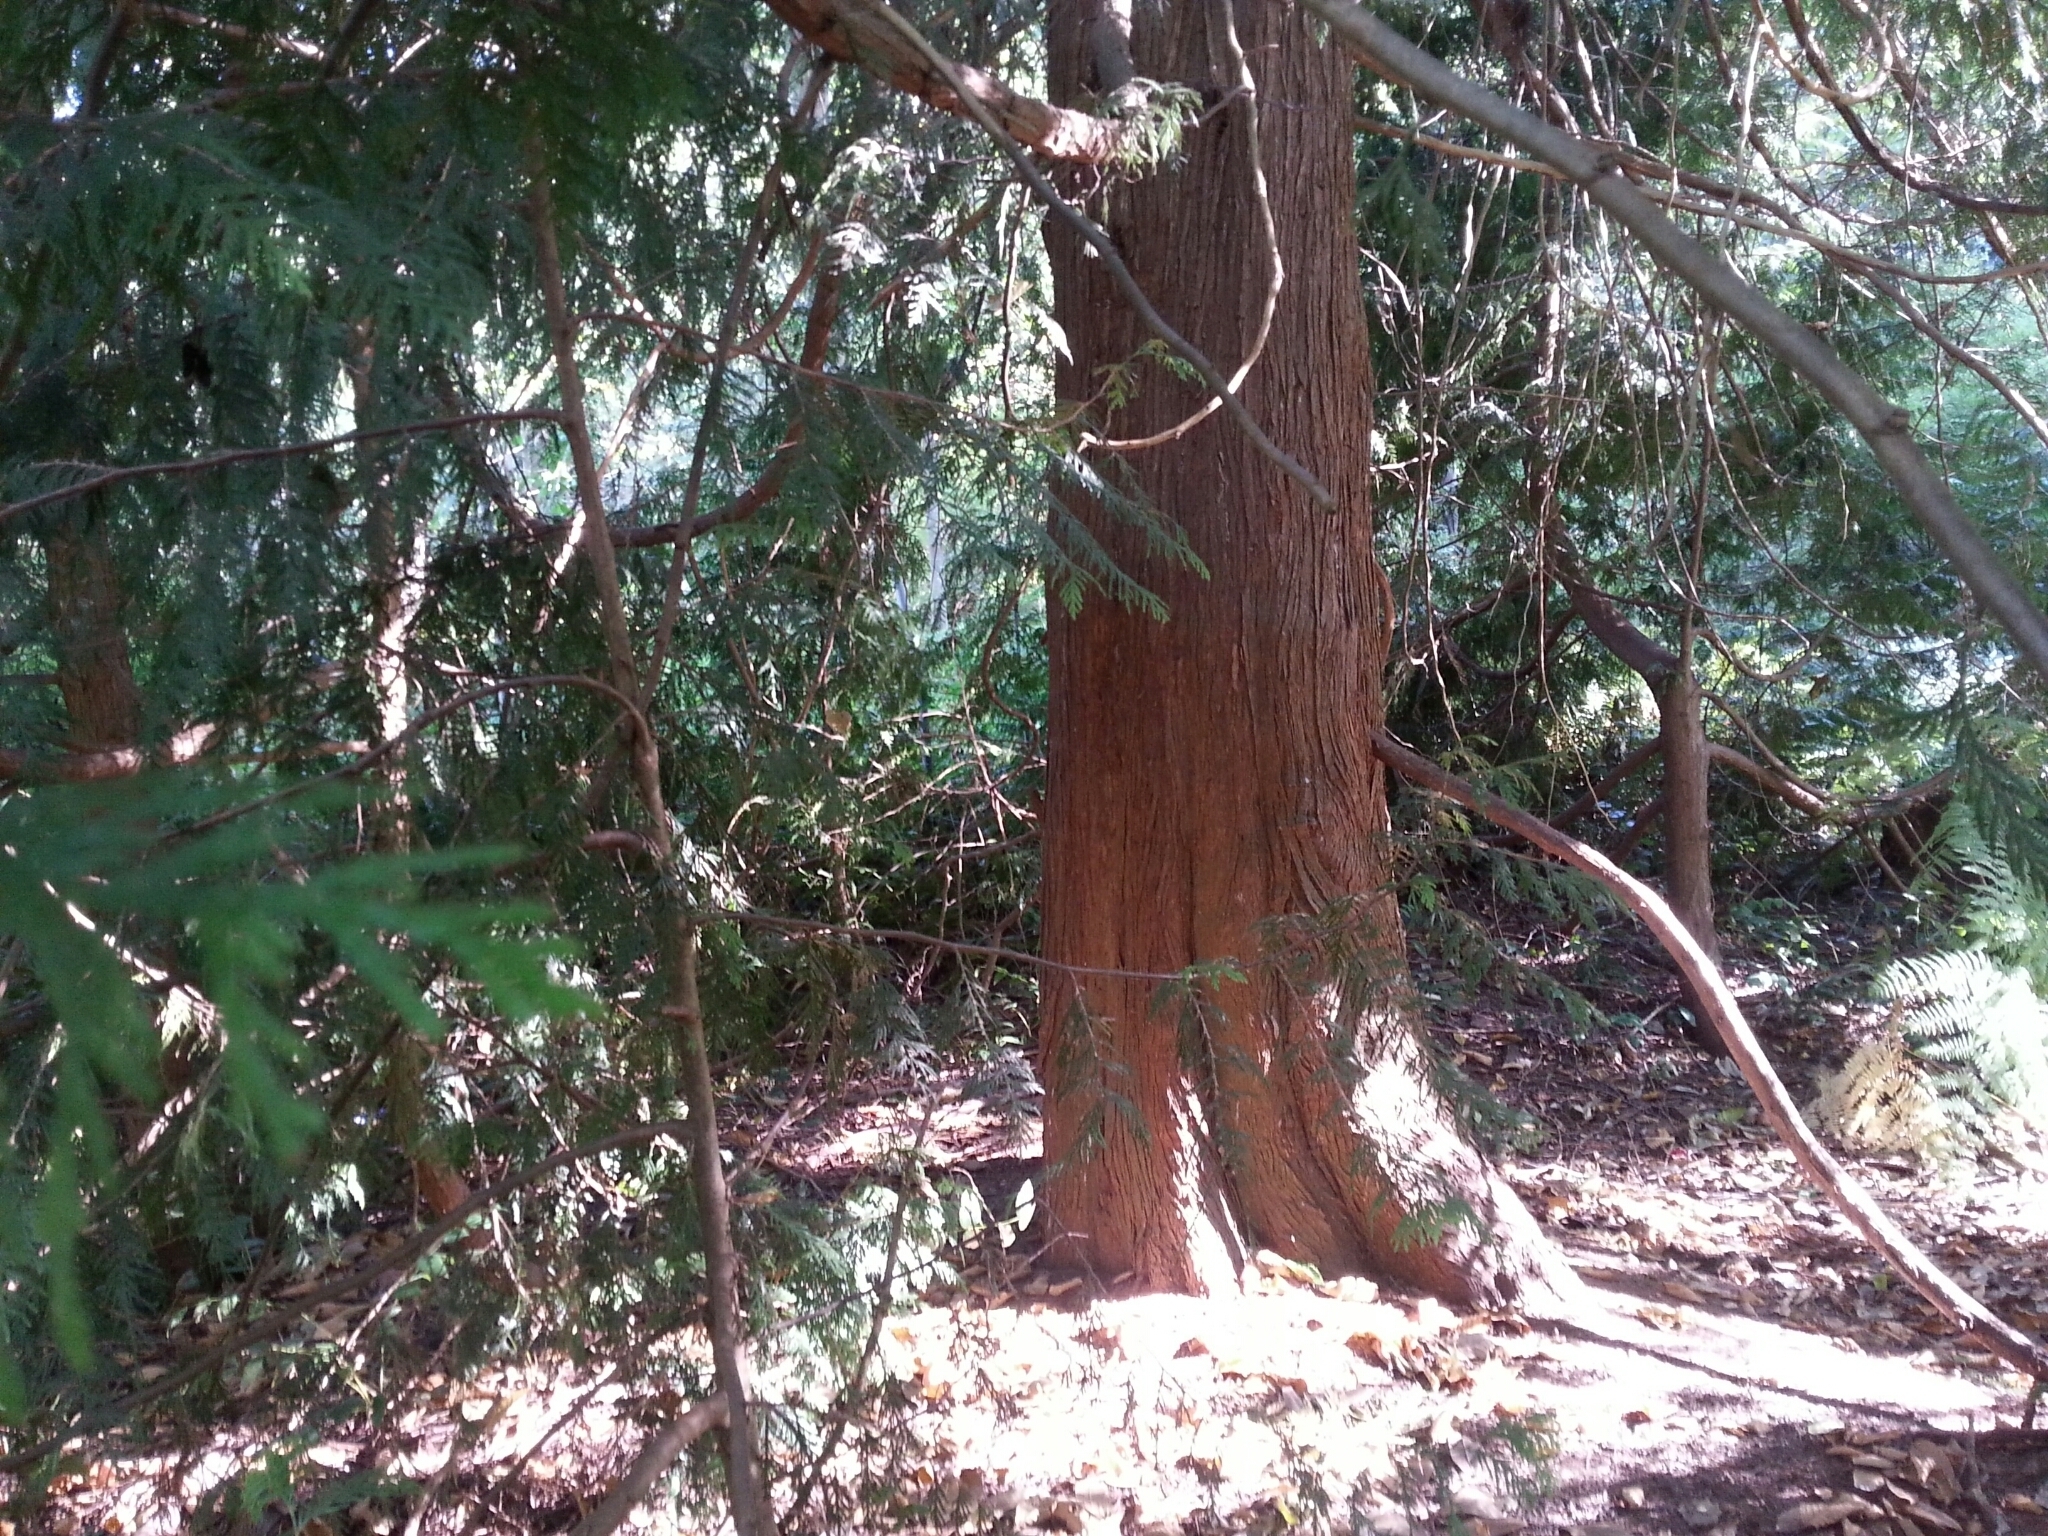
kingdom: Plantae
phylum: Tracheophyta
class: Pinopsida
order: Pinales
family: Cupressaceae
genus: Thuja
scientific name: Thuja plicata
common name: Western red-cedar
